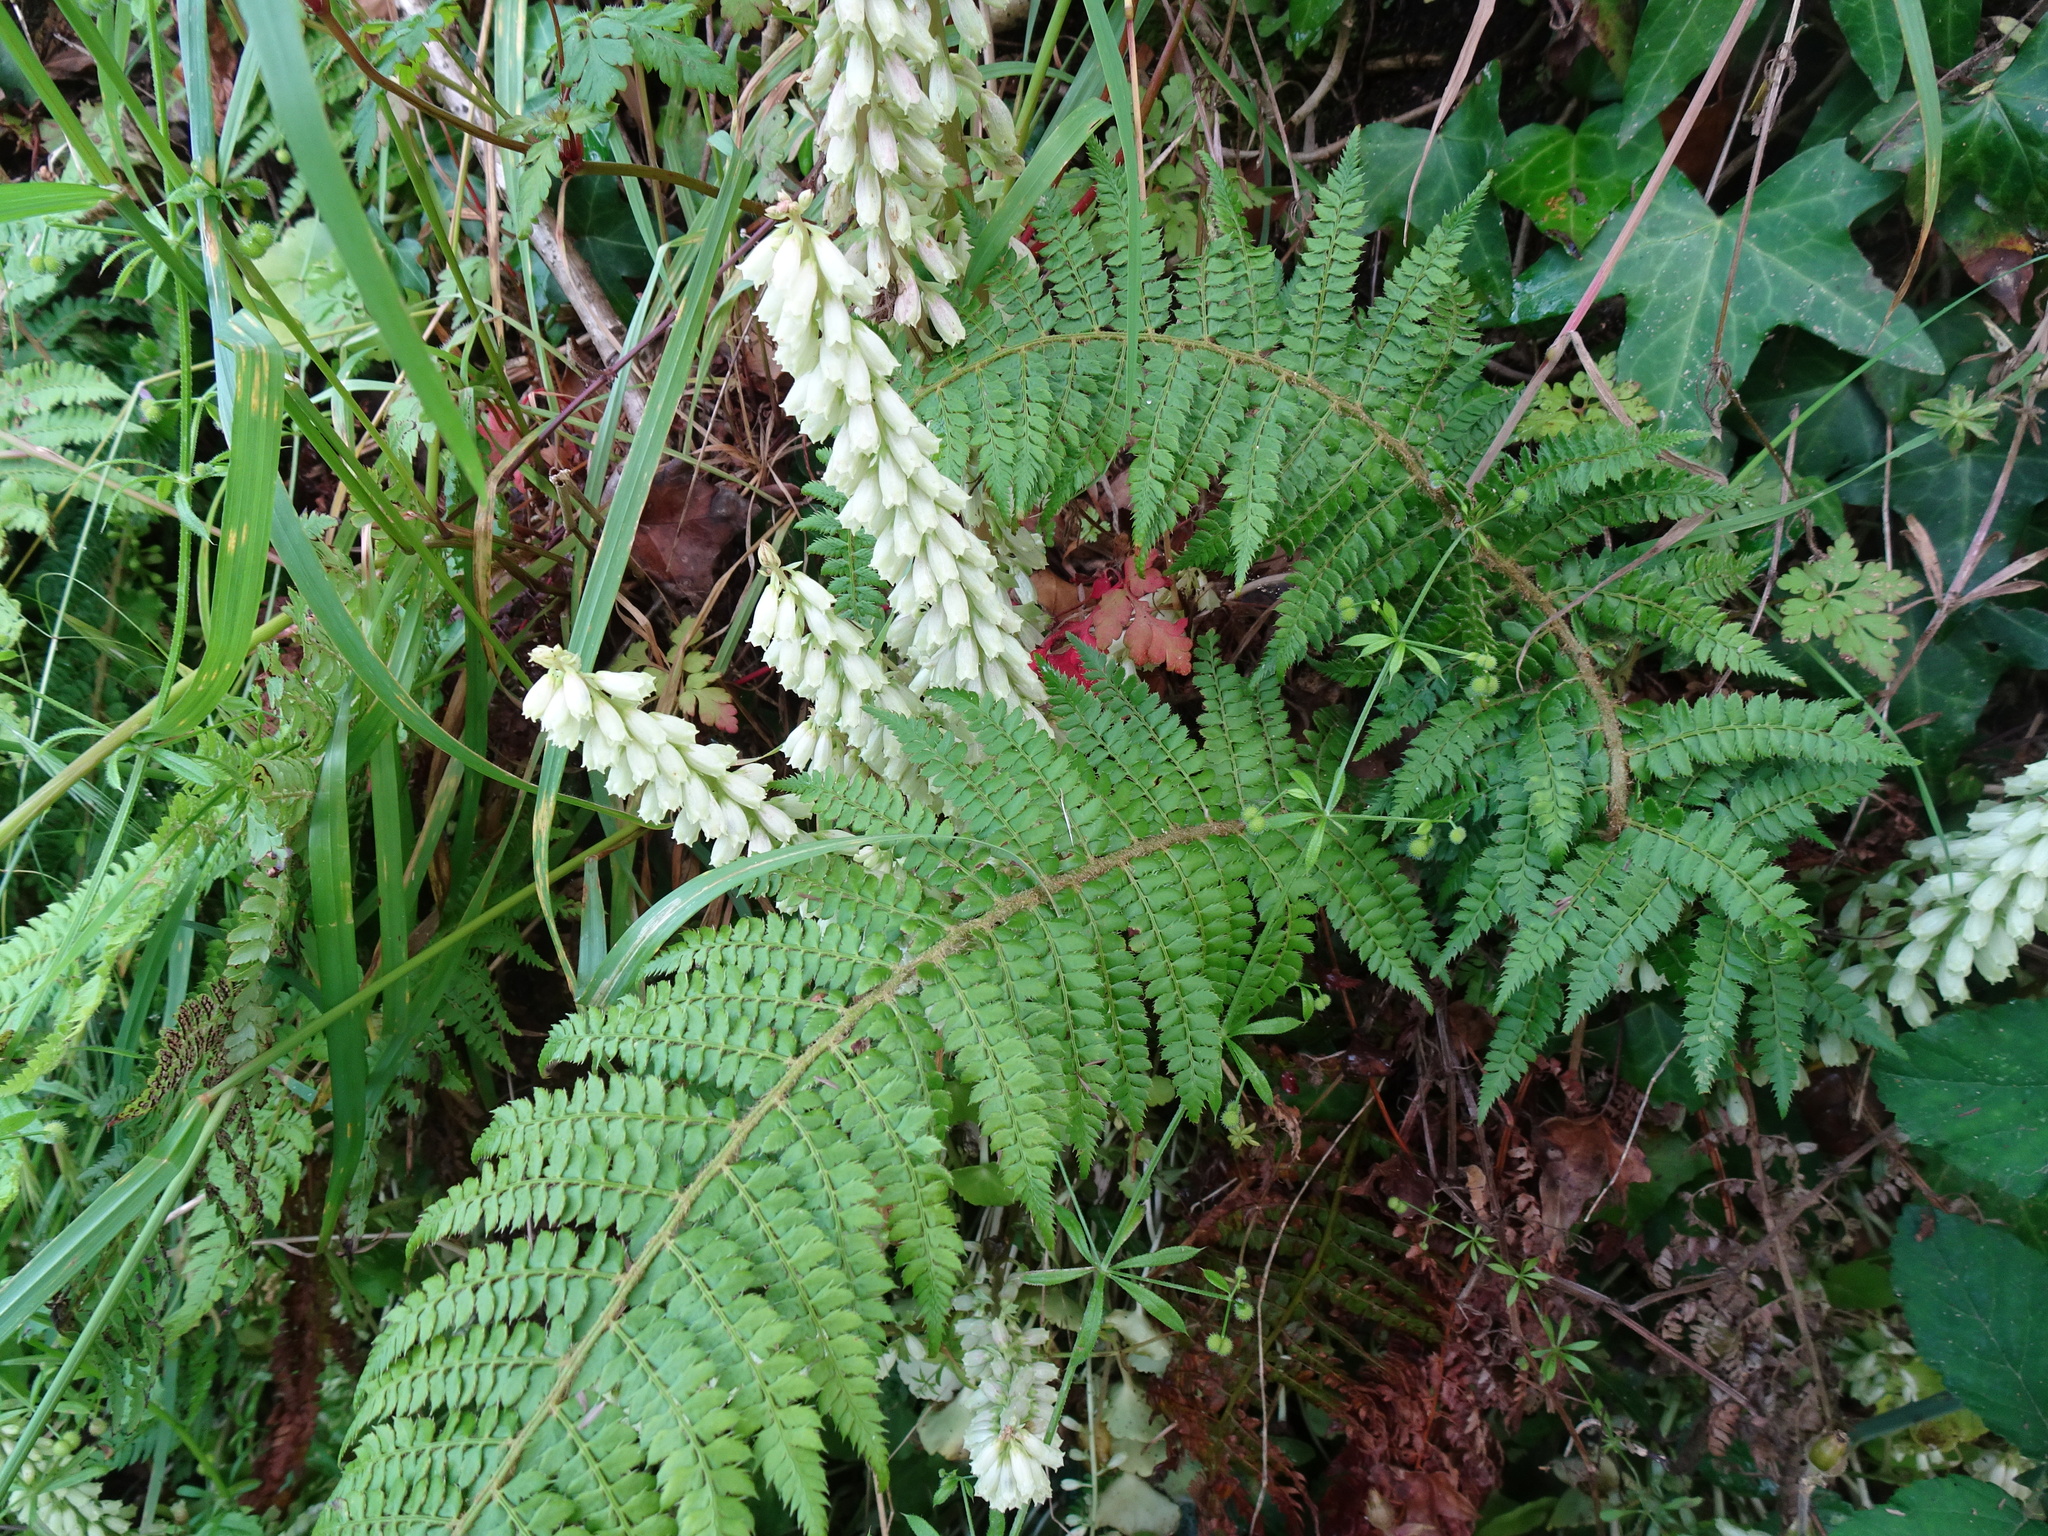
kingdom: Plantae
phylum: Tracheophyta
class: Polypodiopsida
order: Polypodiales
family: Dryopteridaceae
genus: Polystichum
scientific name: Polystichum setiferum
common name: Soft shield-fern
